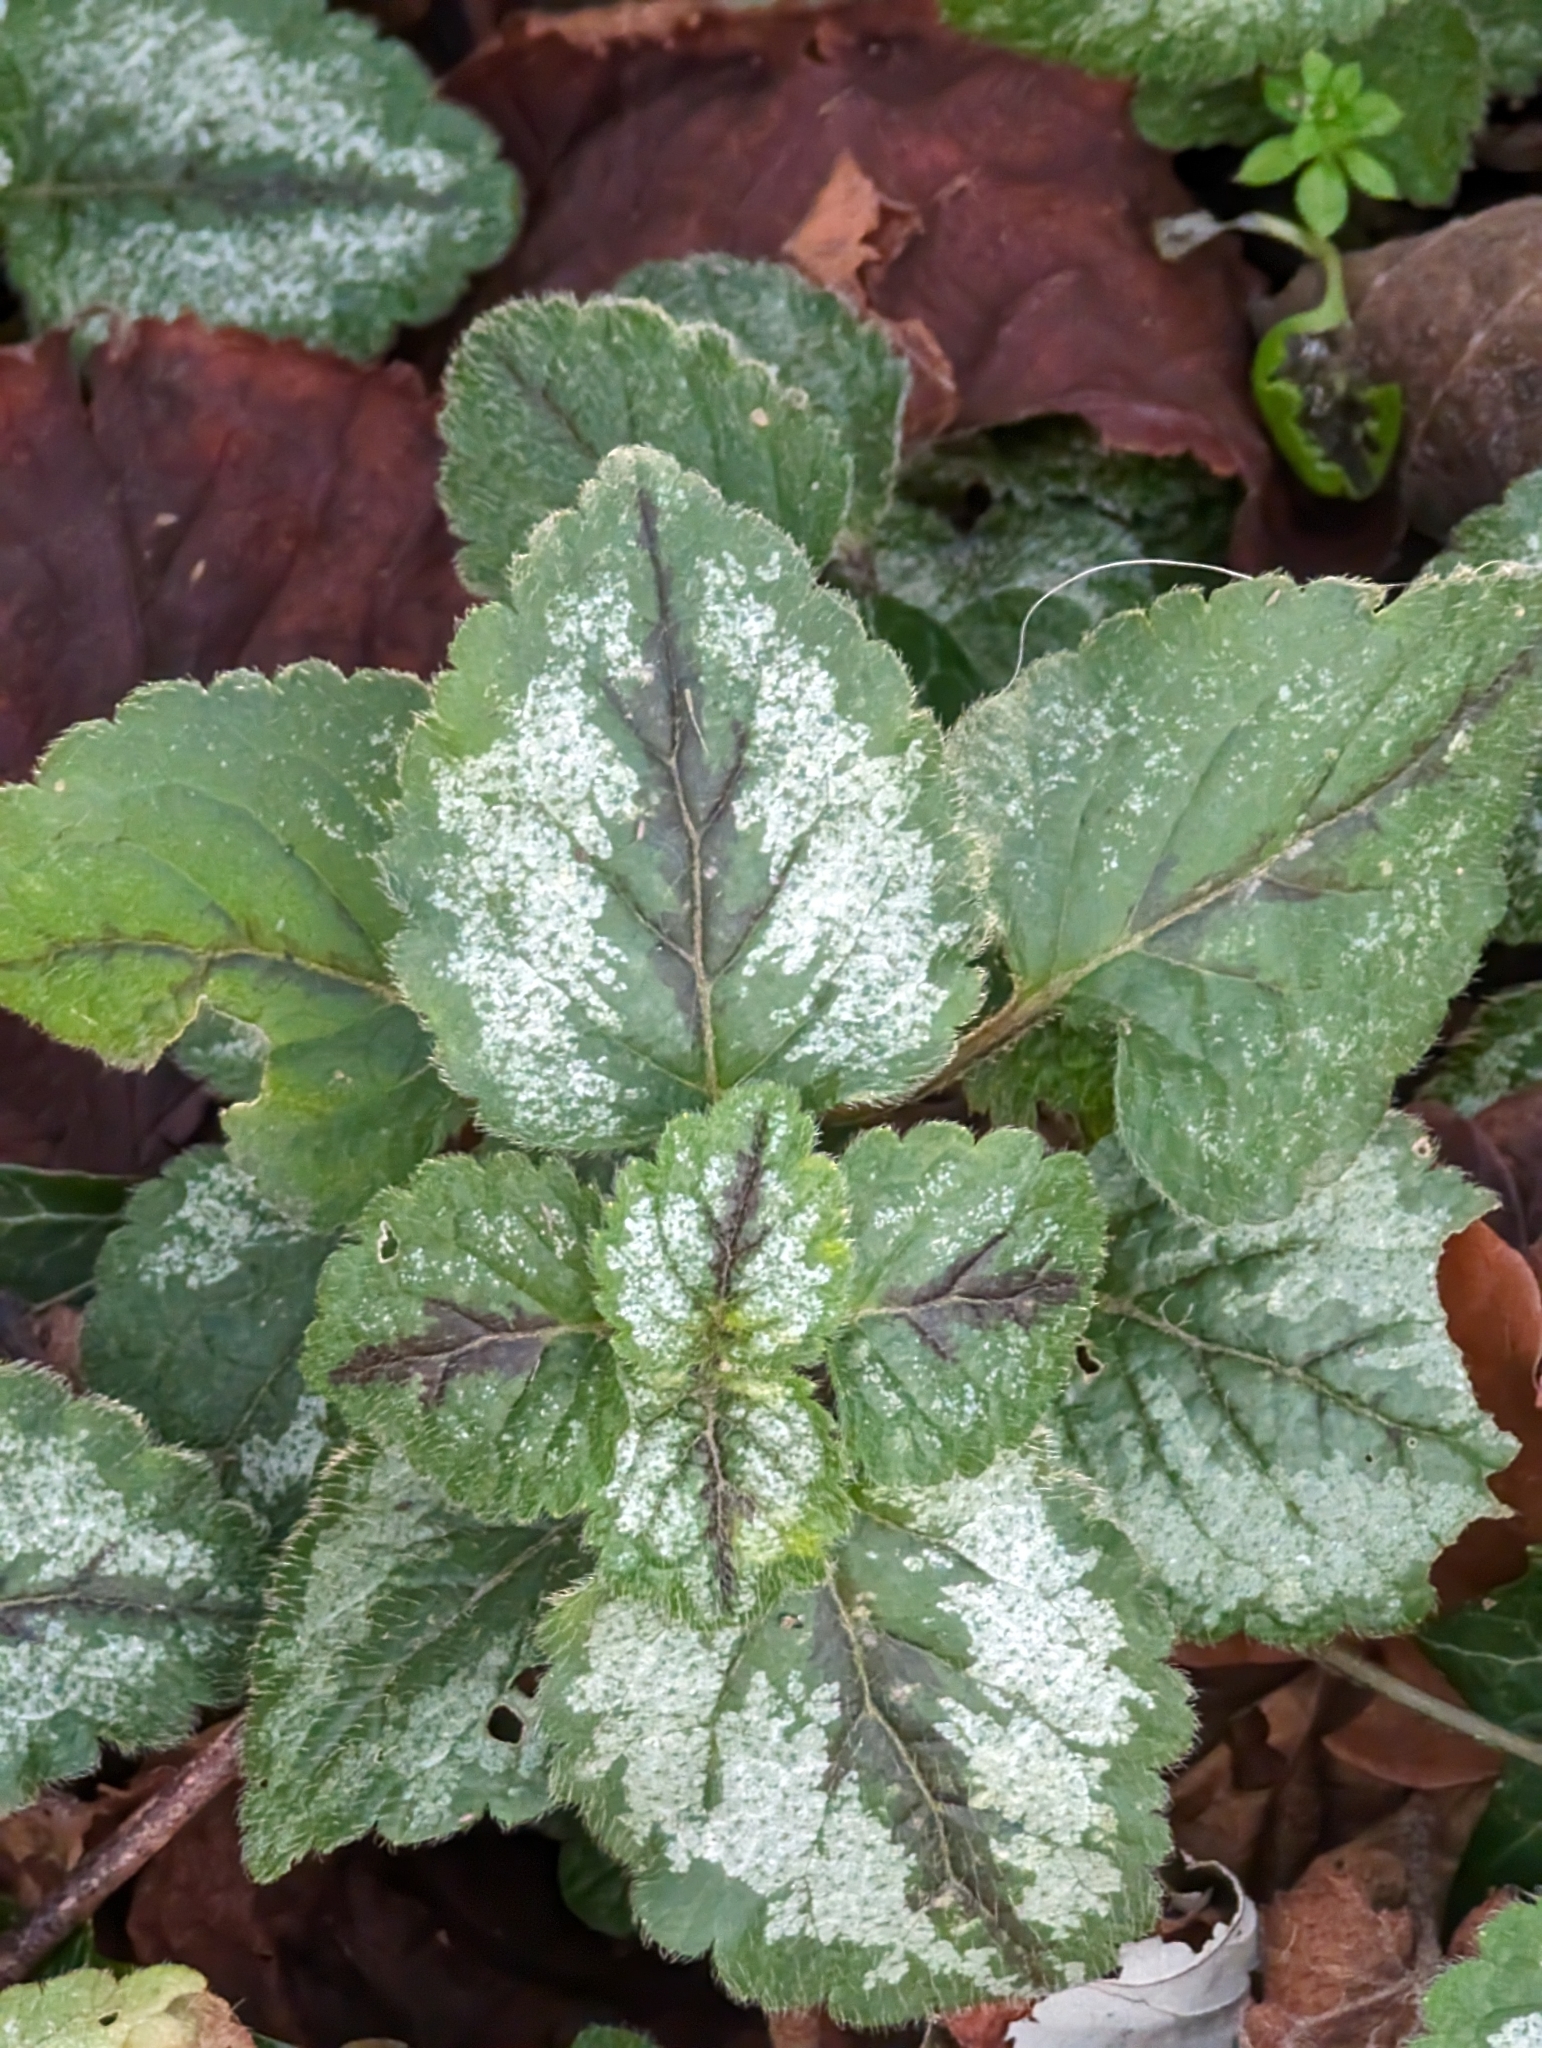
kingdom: Plantae
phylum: Tracheophyta
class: Magnoliopsida
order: Lamiales
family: Lamiaceae
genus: Lamium
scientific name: Lamium galeobdolon
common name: Yellow archangel
